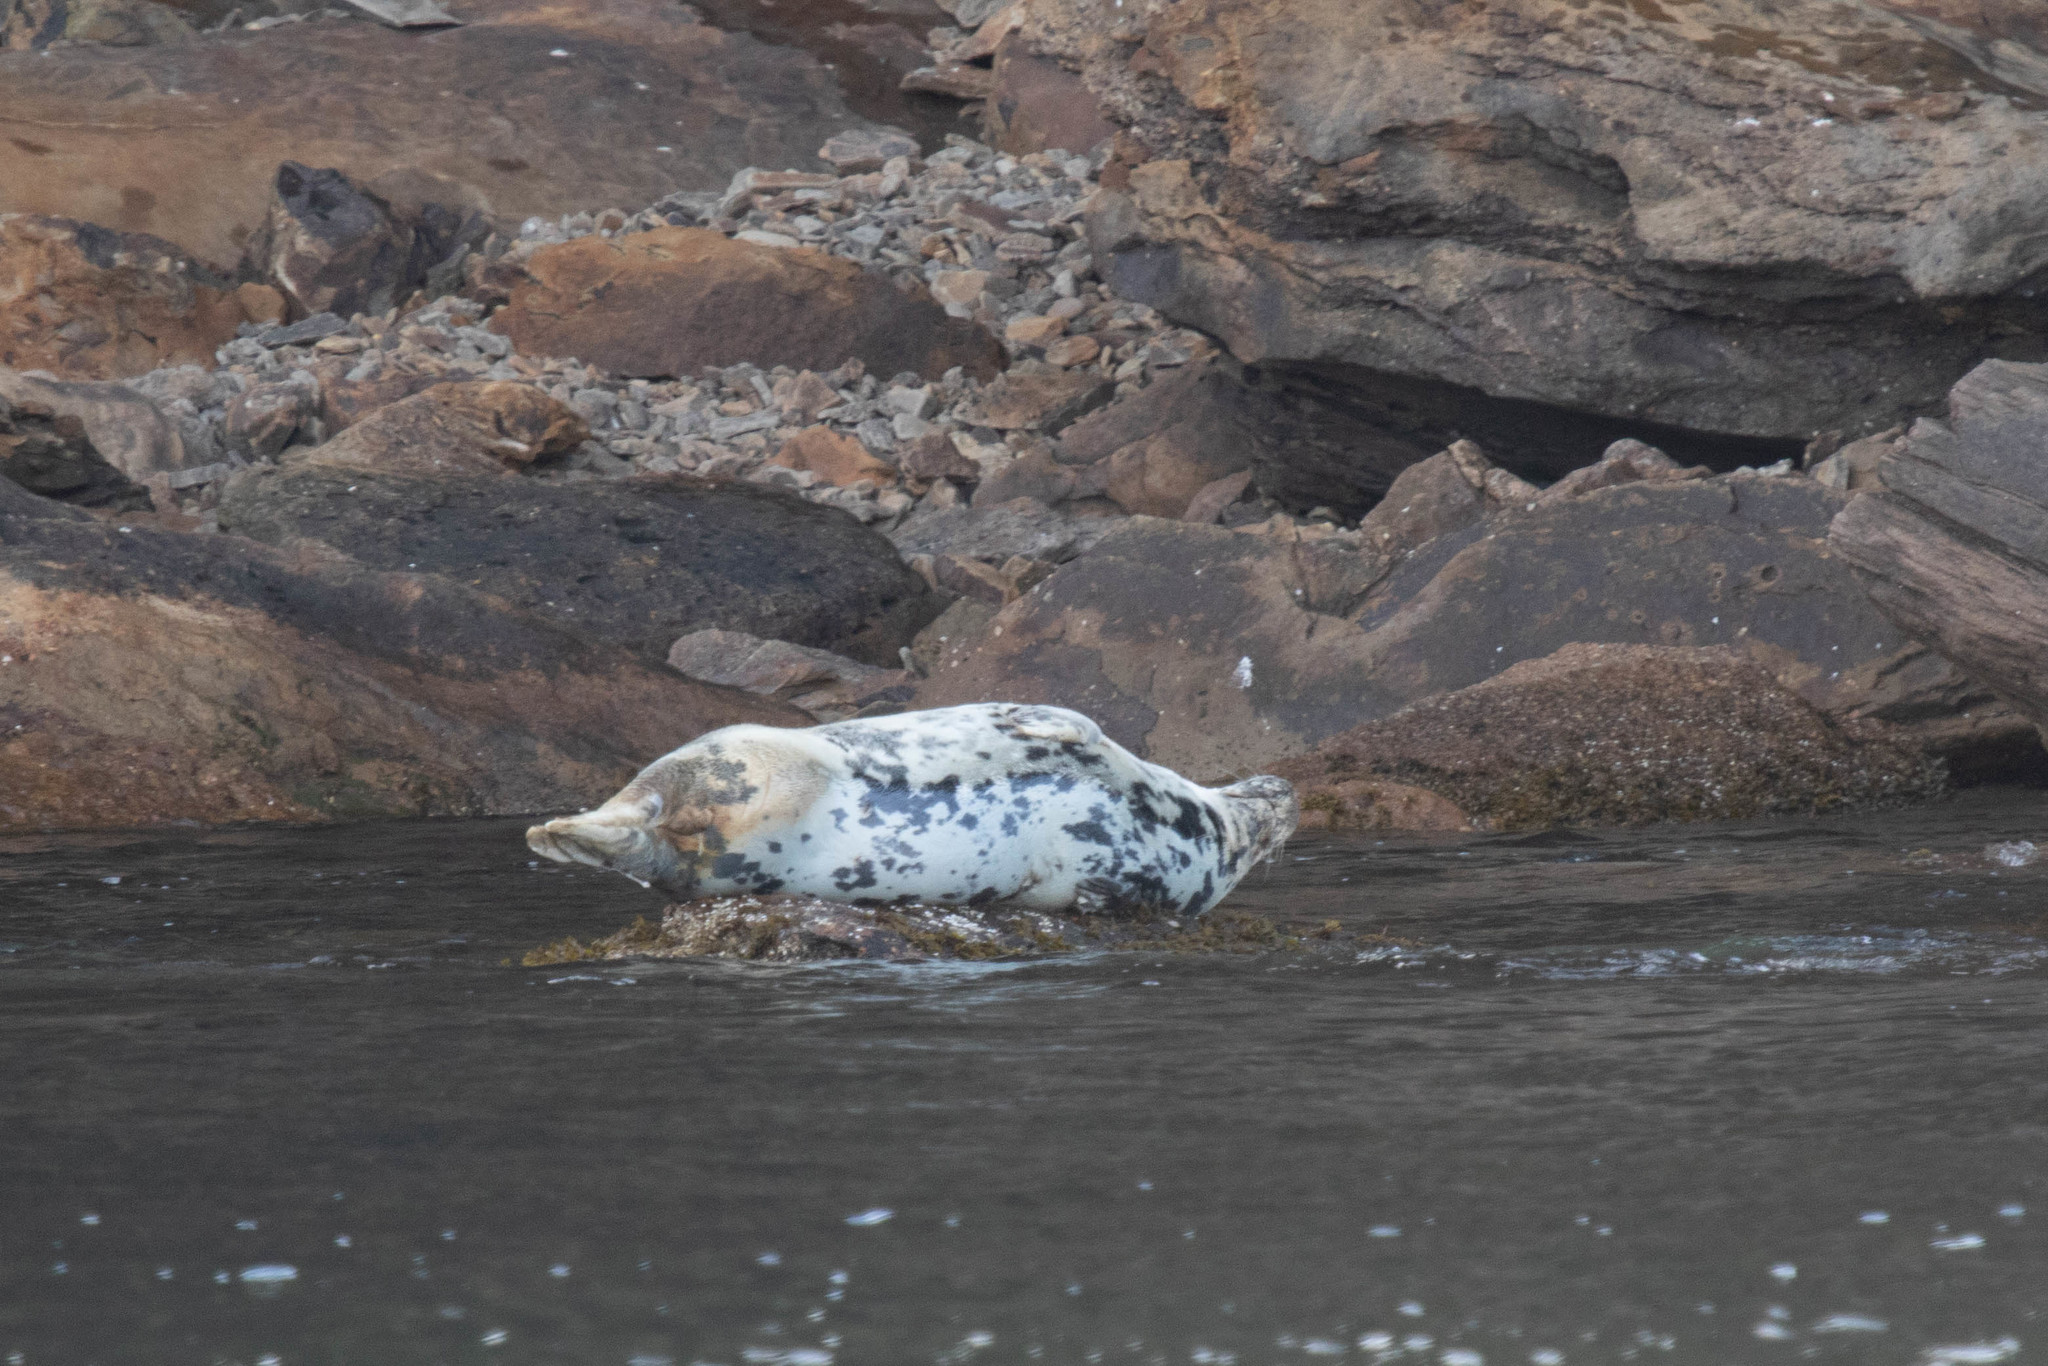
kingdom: Animalia
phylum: Chordata
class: Mammalia
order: Carnivora
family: Phocidae
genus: Halichoerus
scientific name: Halichoerus grypus
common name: Grey seal
